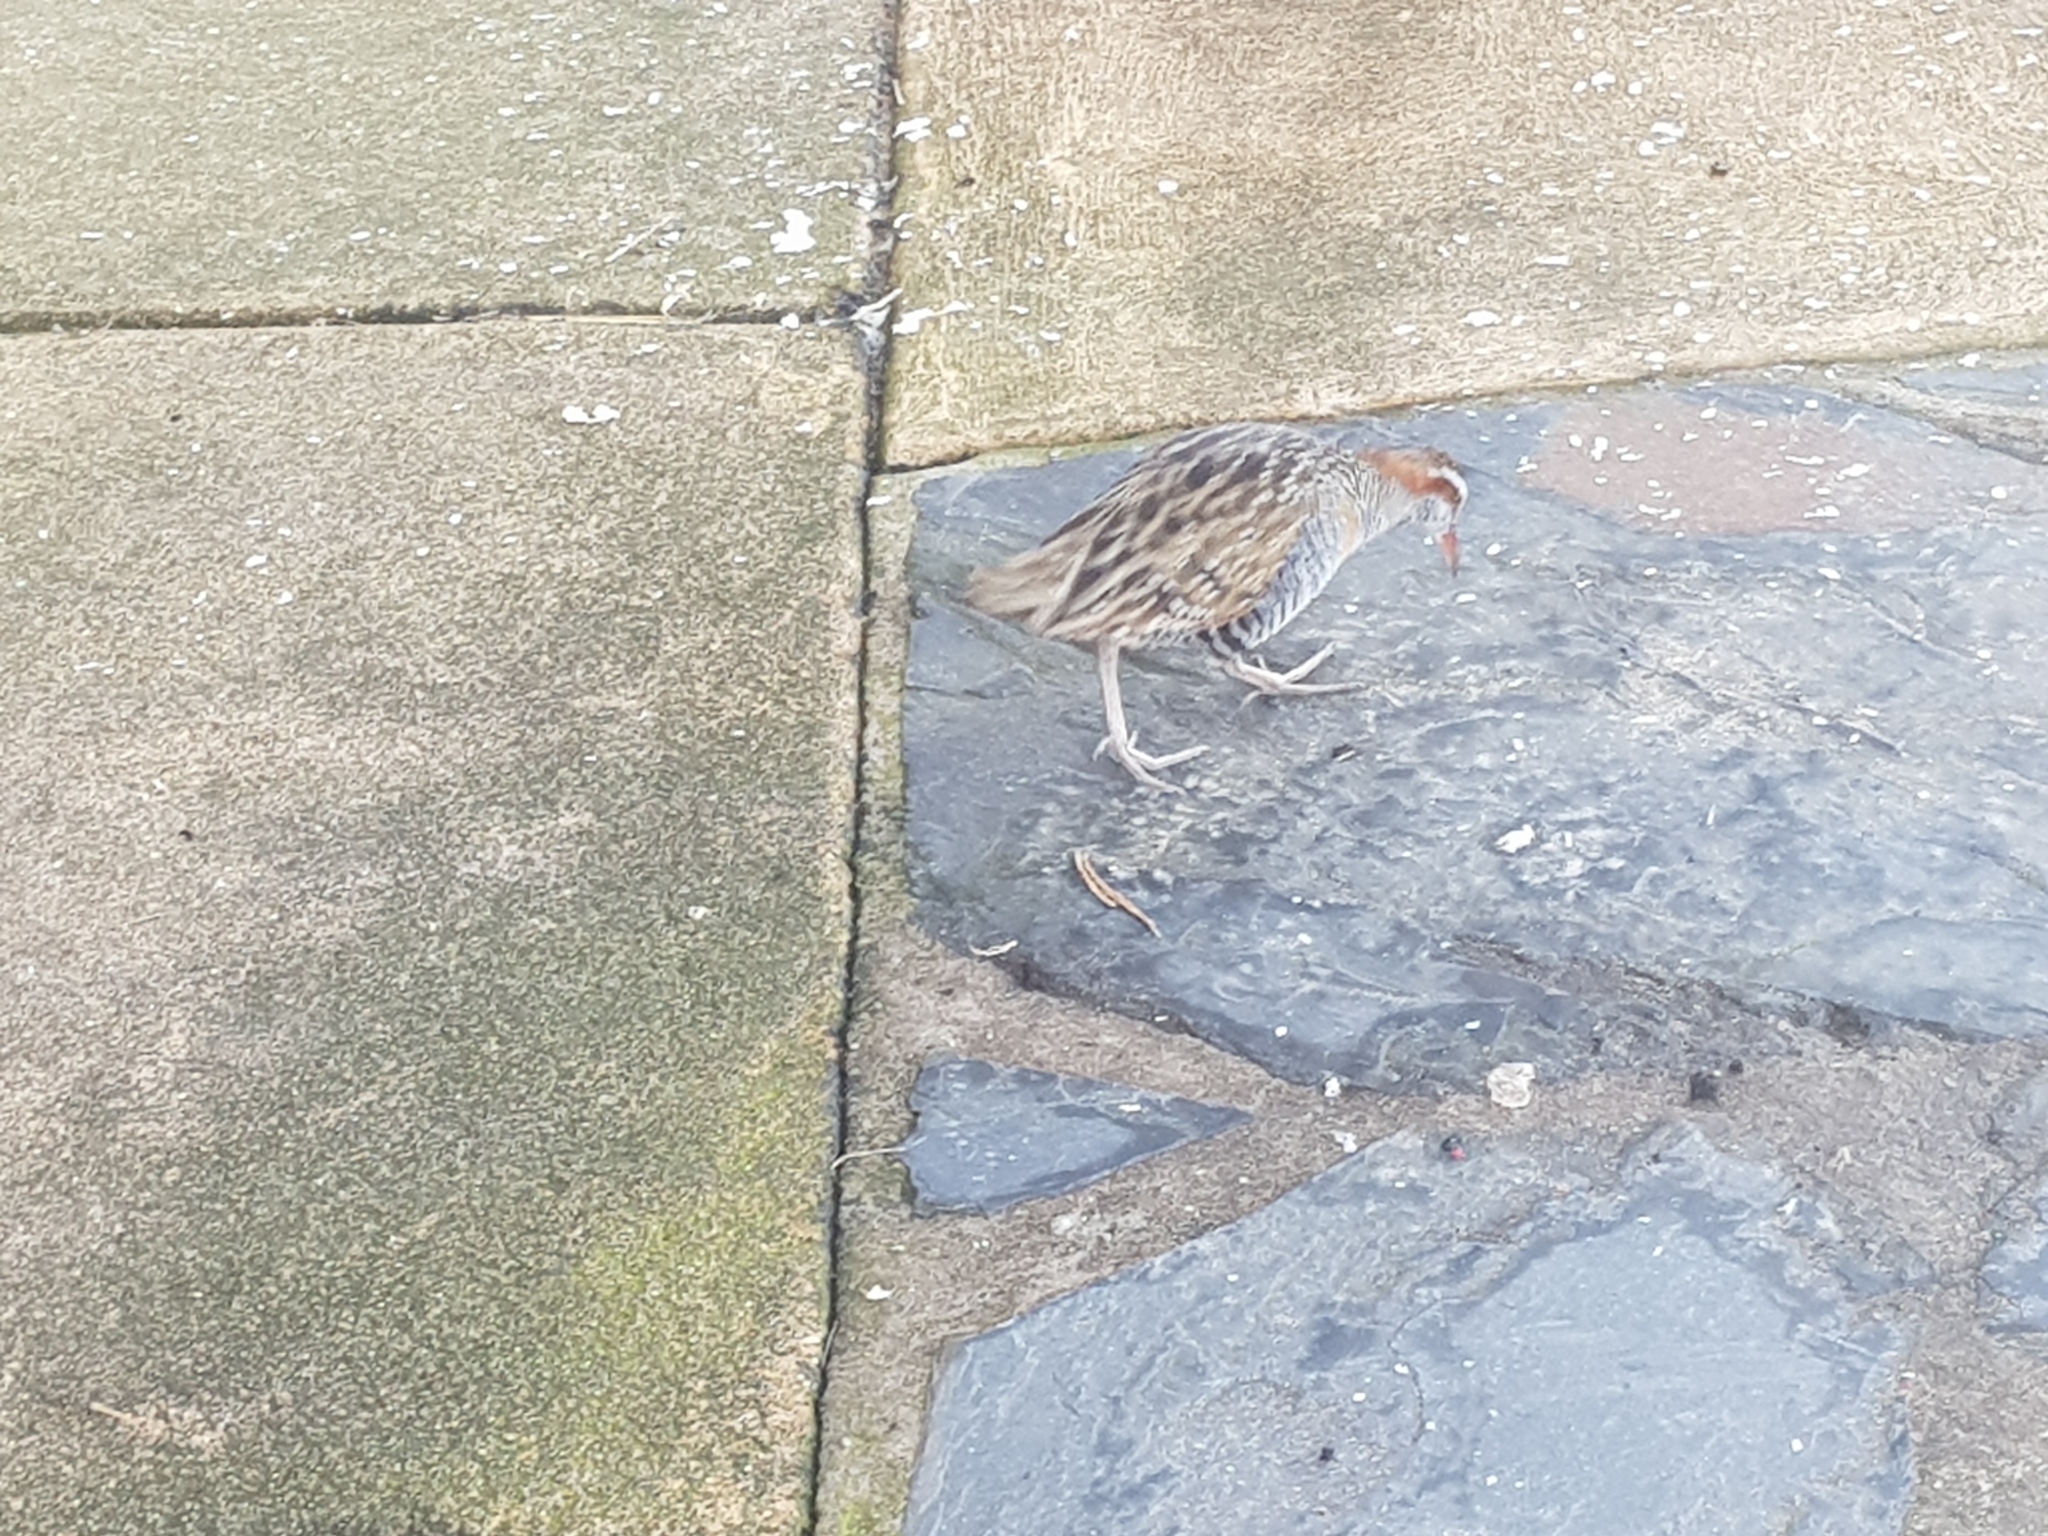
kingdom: Animalia
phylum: Chordata
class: Aves
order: Gruiformes
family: Rallidae
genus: Gallirallus
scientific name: Gallirallus philippensis
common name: Buff-banded rail
